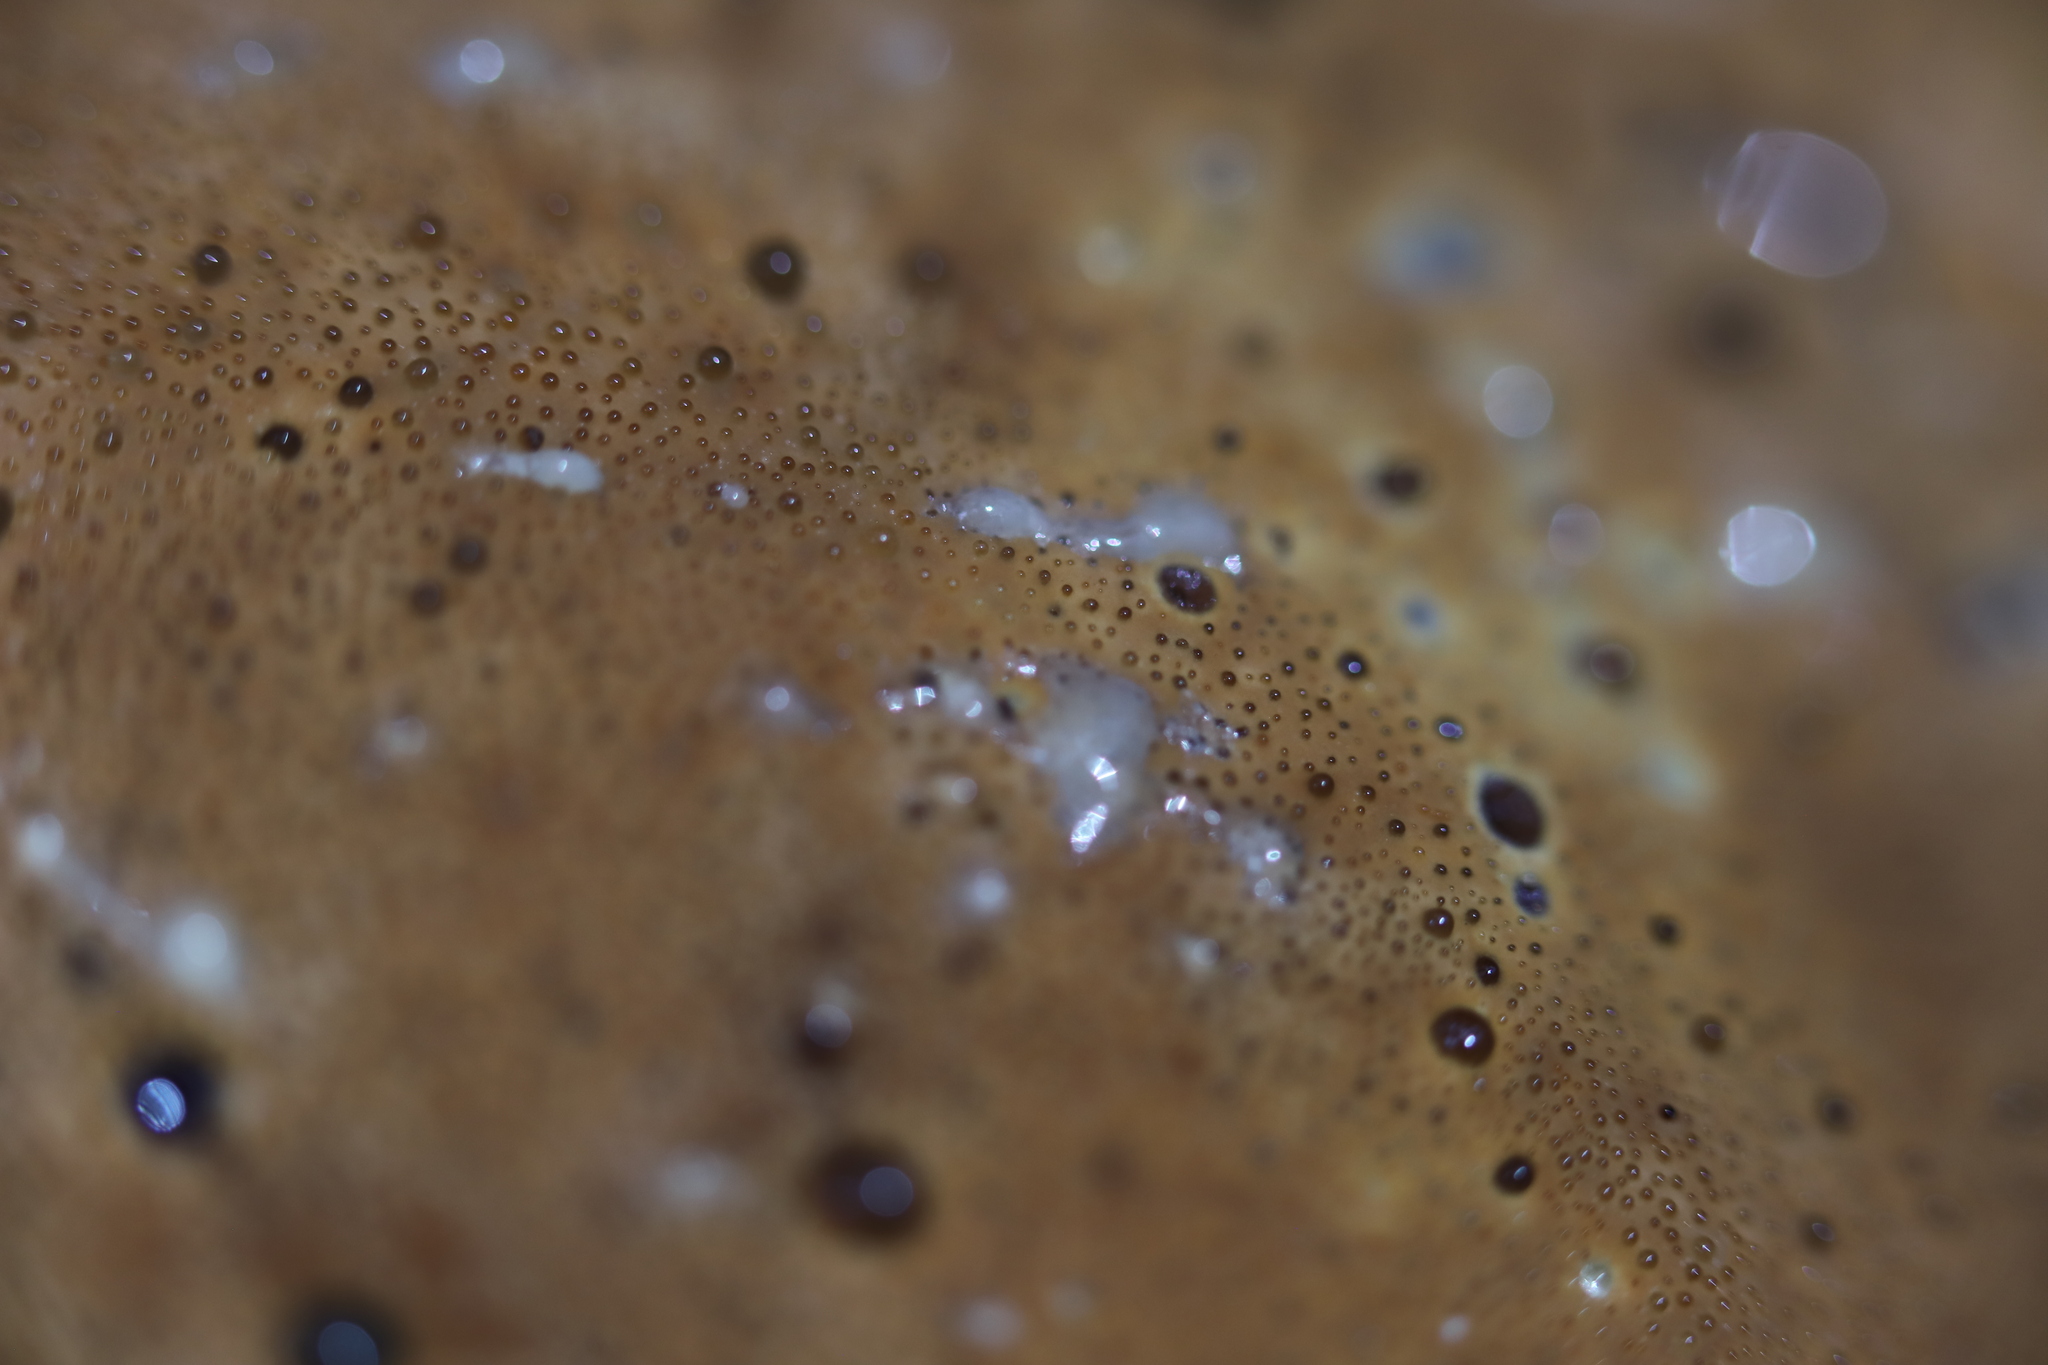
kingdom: Fungi
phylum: Basidiomycota
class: Agaricomycetes
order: Hymenochaetales
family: Hymenochaetaceae
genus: Pseudoinonotus
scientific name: Pseudoinonotus dryadeus
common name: Oak bracket
